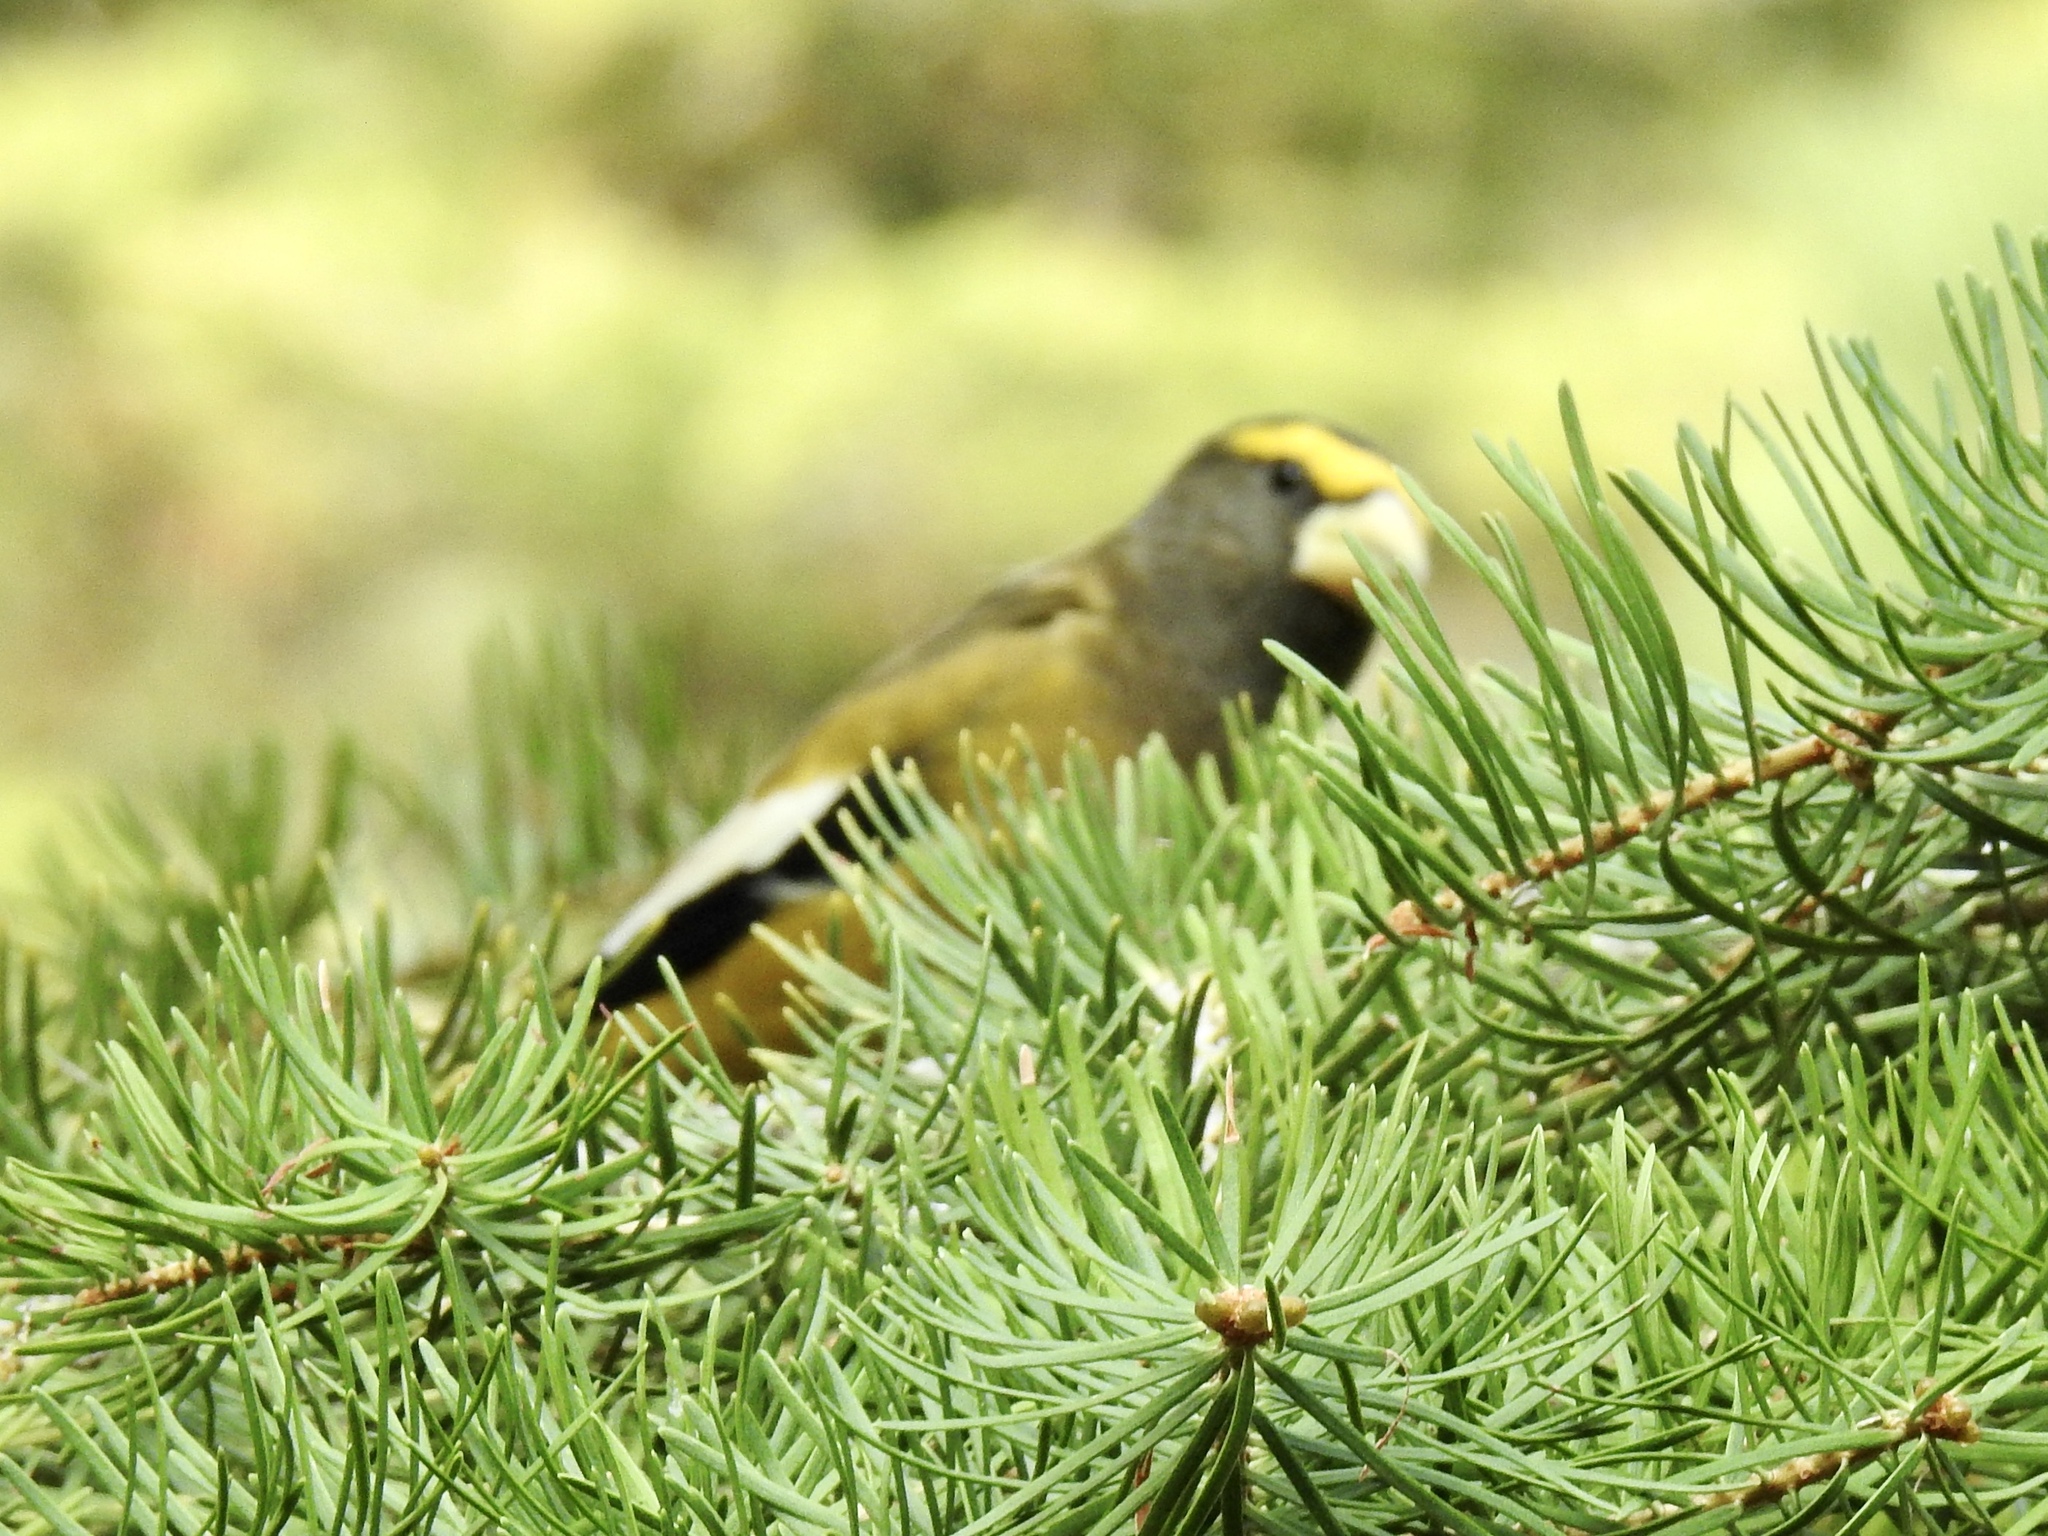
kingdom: Animalia
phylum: Chordata
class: Aves
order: Passeriformes
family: Fringillidae
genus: Hesperiphona
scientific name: Hesperiphona vespertina
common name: Evening grosbeak
